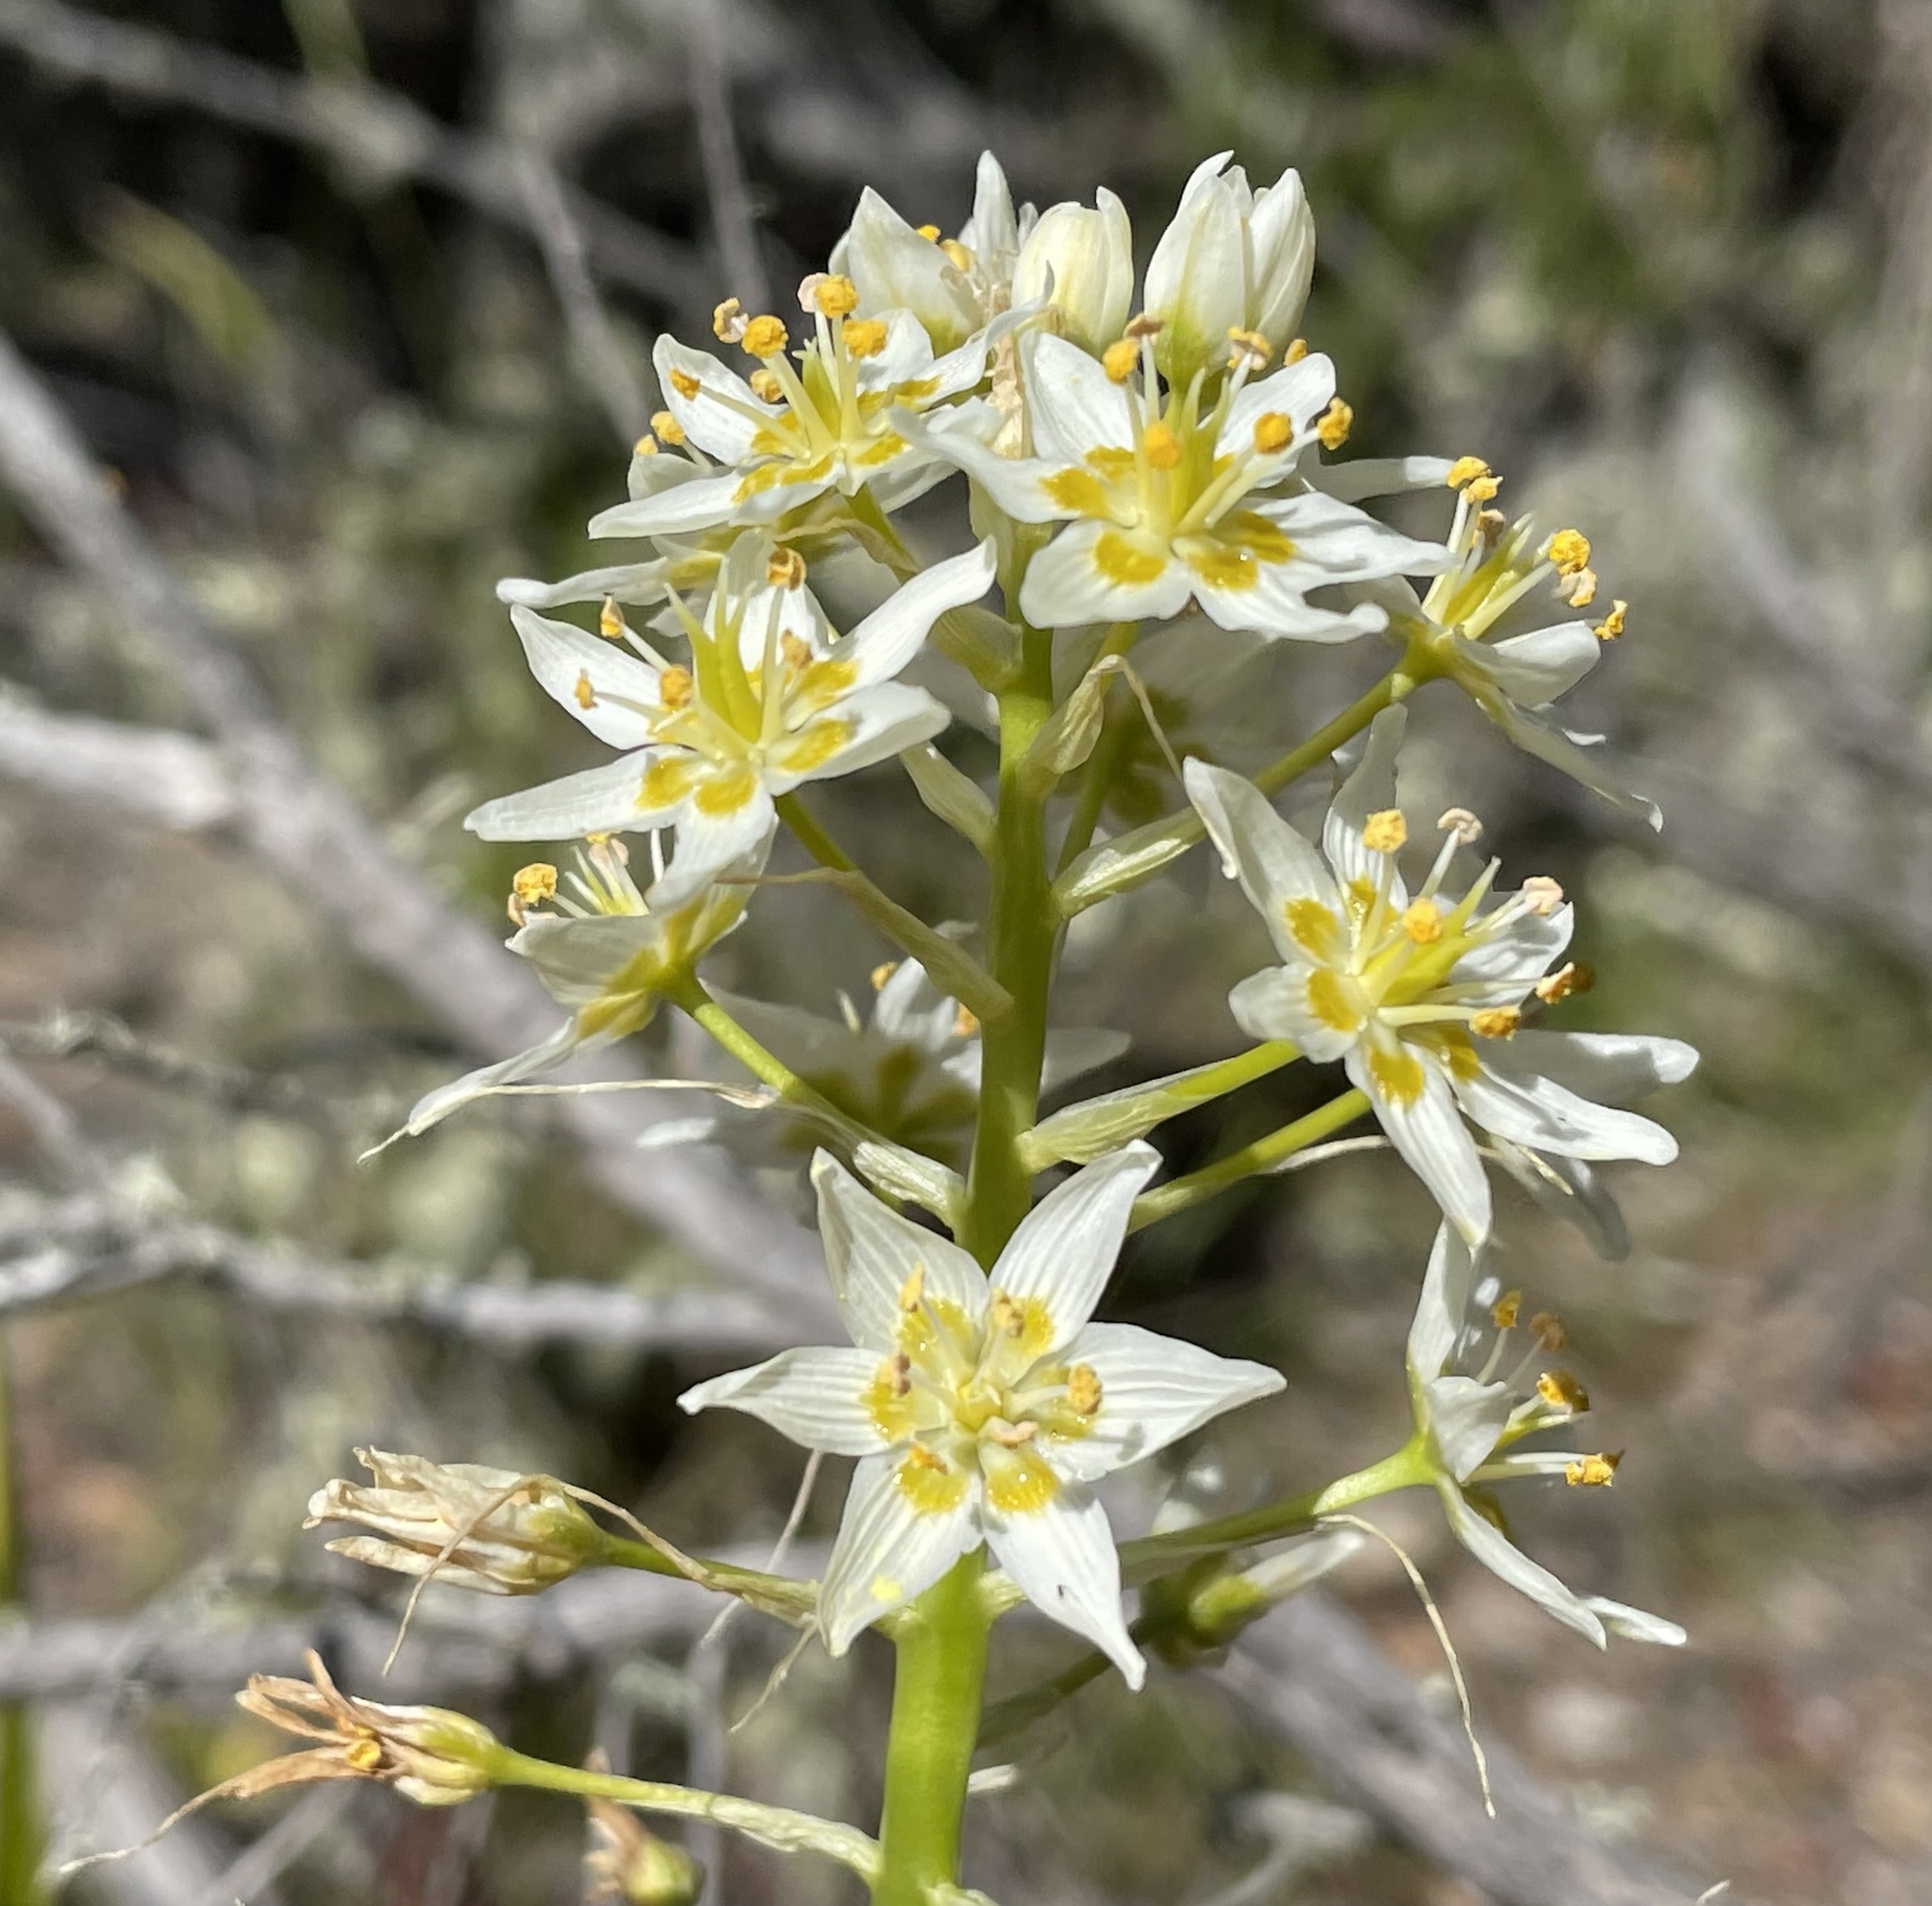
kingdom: Plantae
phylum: Tracheophyta
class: Liliopsida
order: Liliales
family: Melanthiaceae
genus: Toxicoscordion
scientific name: Toxicoscordion fremontii
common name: Fremont's death camas
